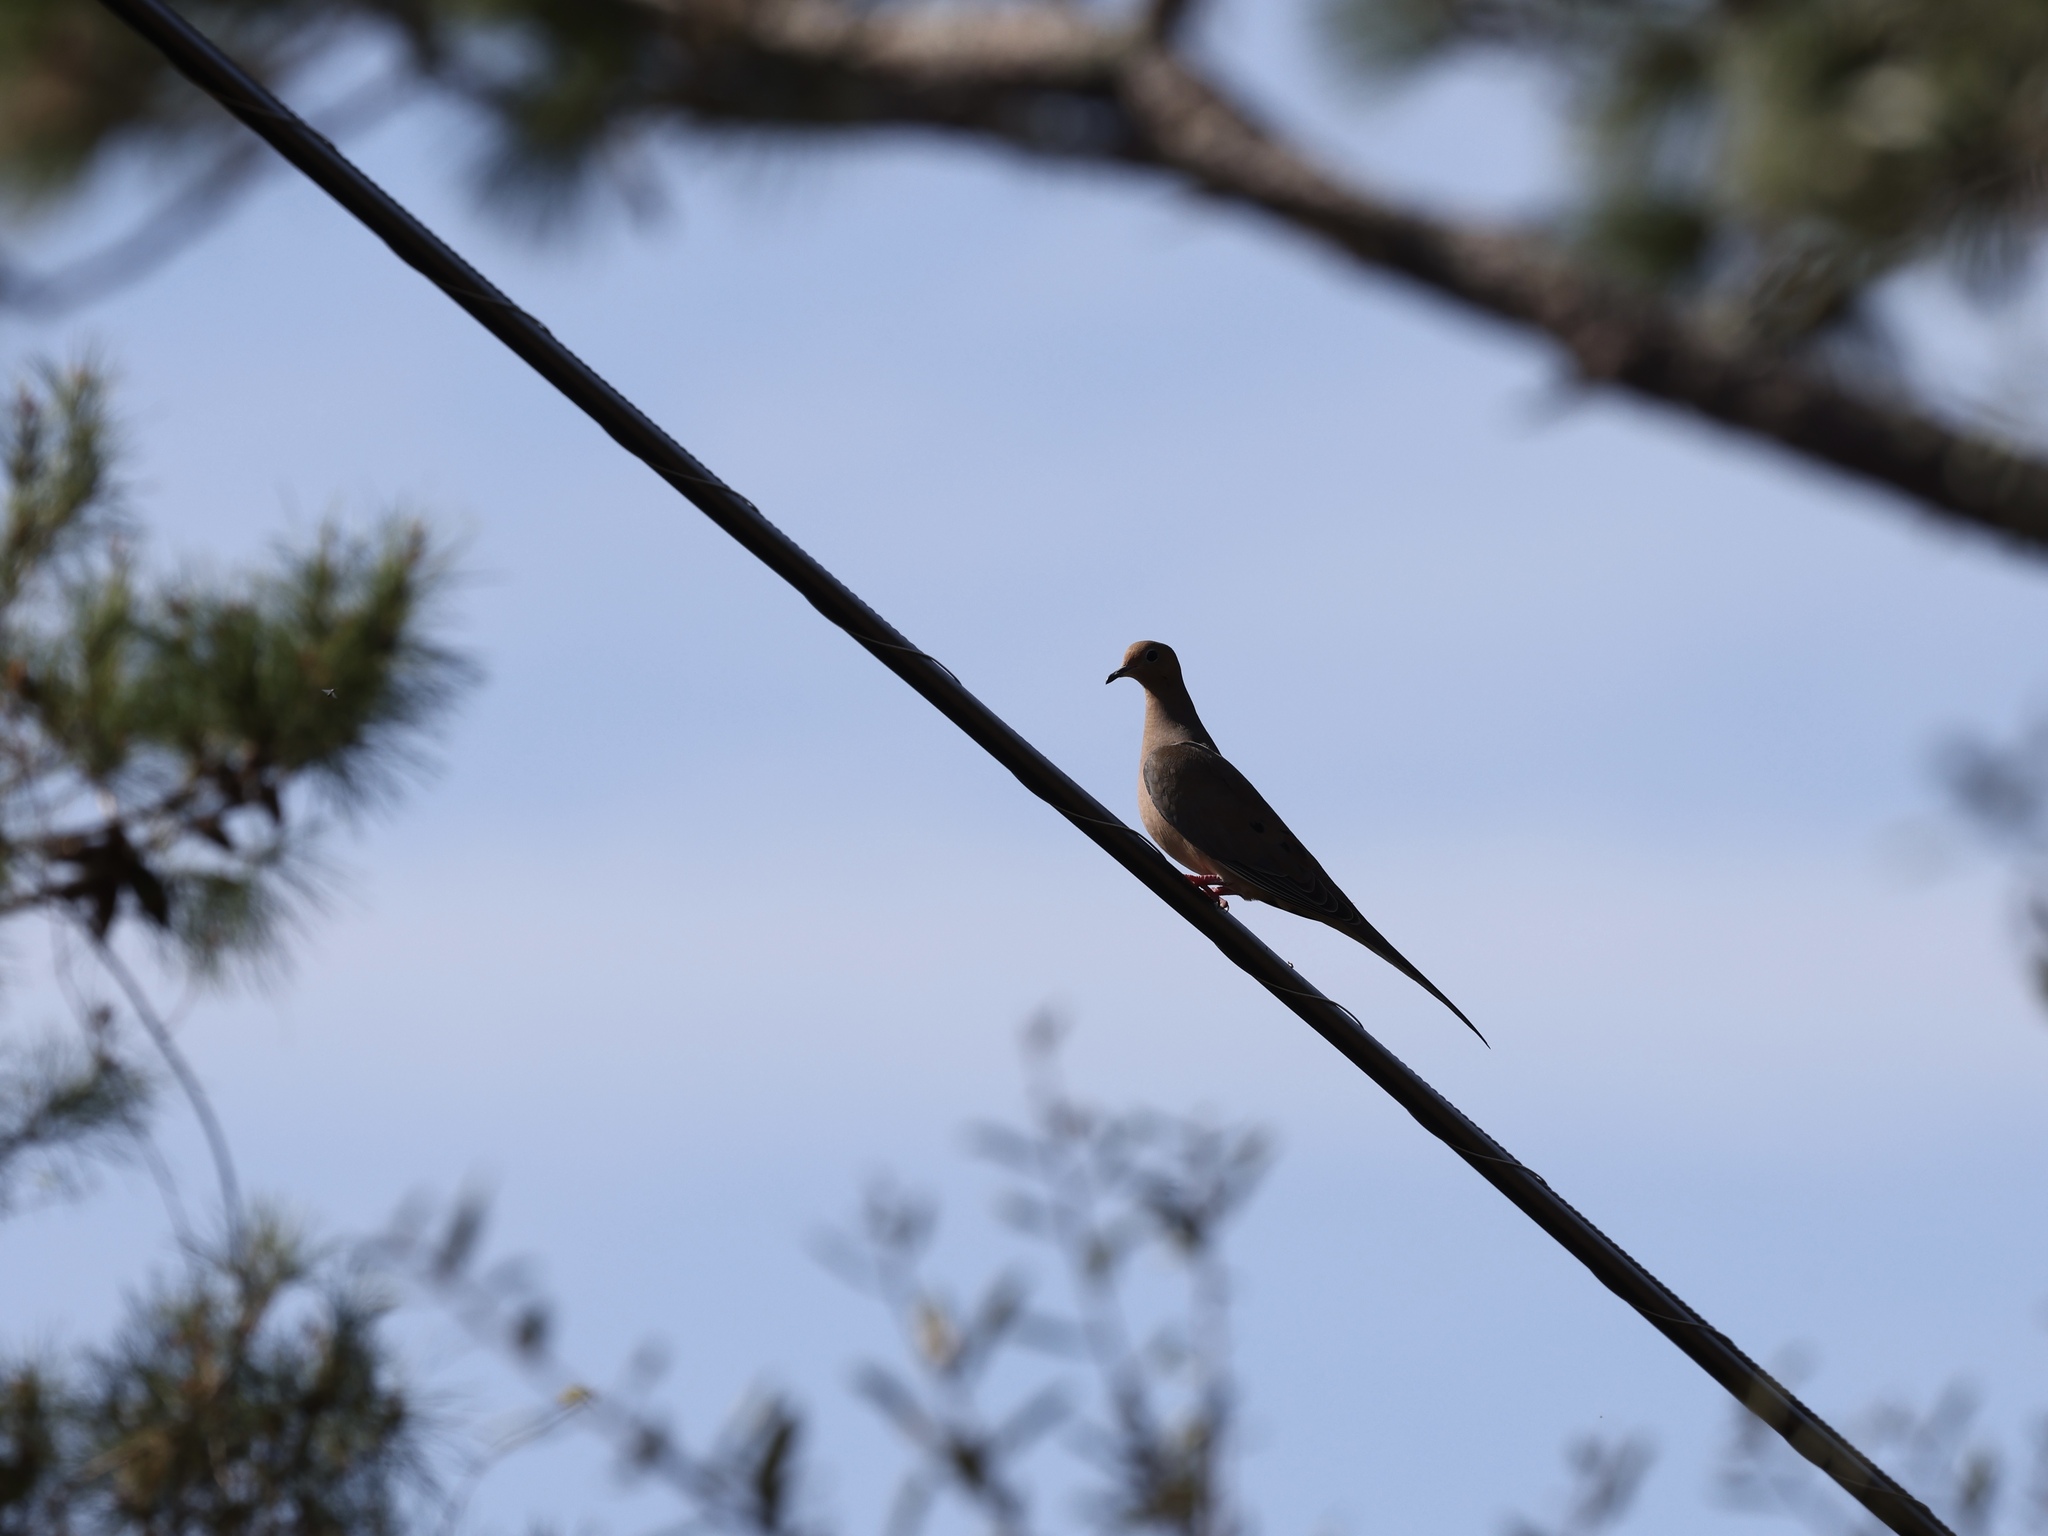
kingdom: Animalia
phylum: Chordata
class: Aves
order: Columbiformes
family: Columbidae
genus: Zenaida
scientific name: Zenaida macroura
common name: Mourning dove
